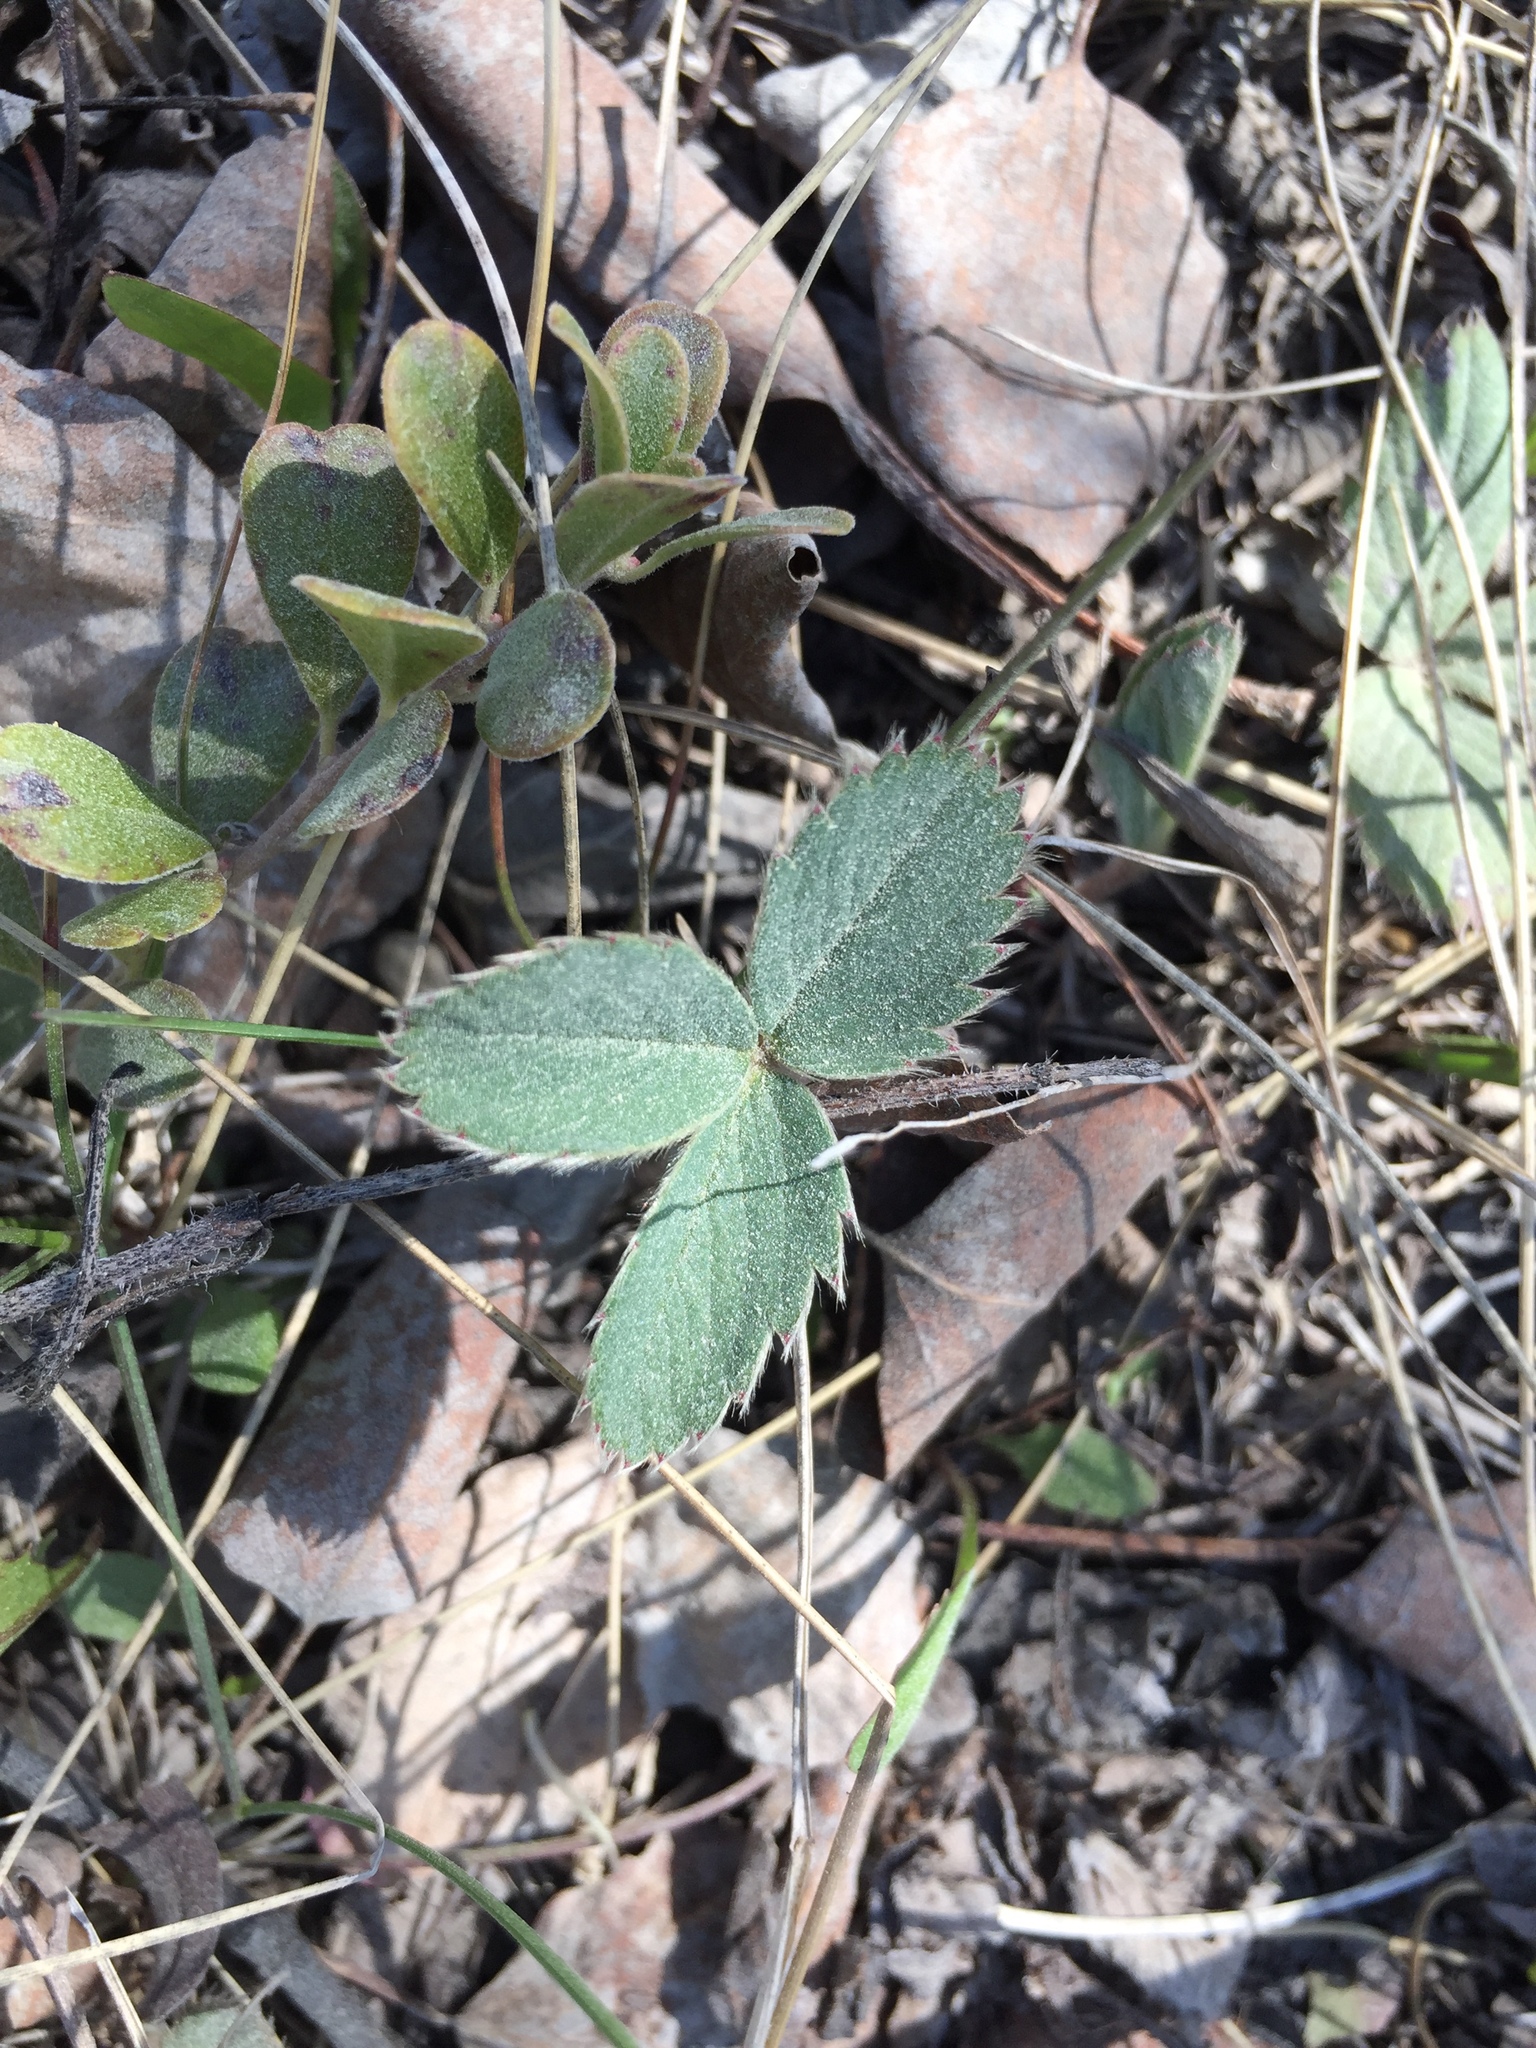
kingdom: Plantae
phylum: Tracheophyta
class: Magnoliopsida
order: Rosales
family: Rosaceae
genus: Fragaria
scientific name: Fragaria virginiana
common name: Thickleaved wild strawberry
